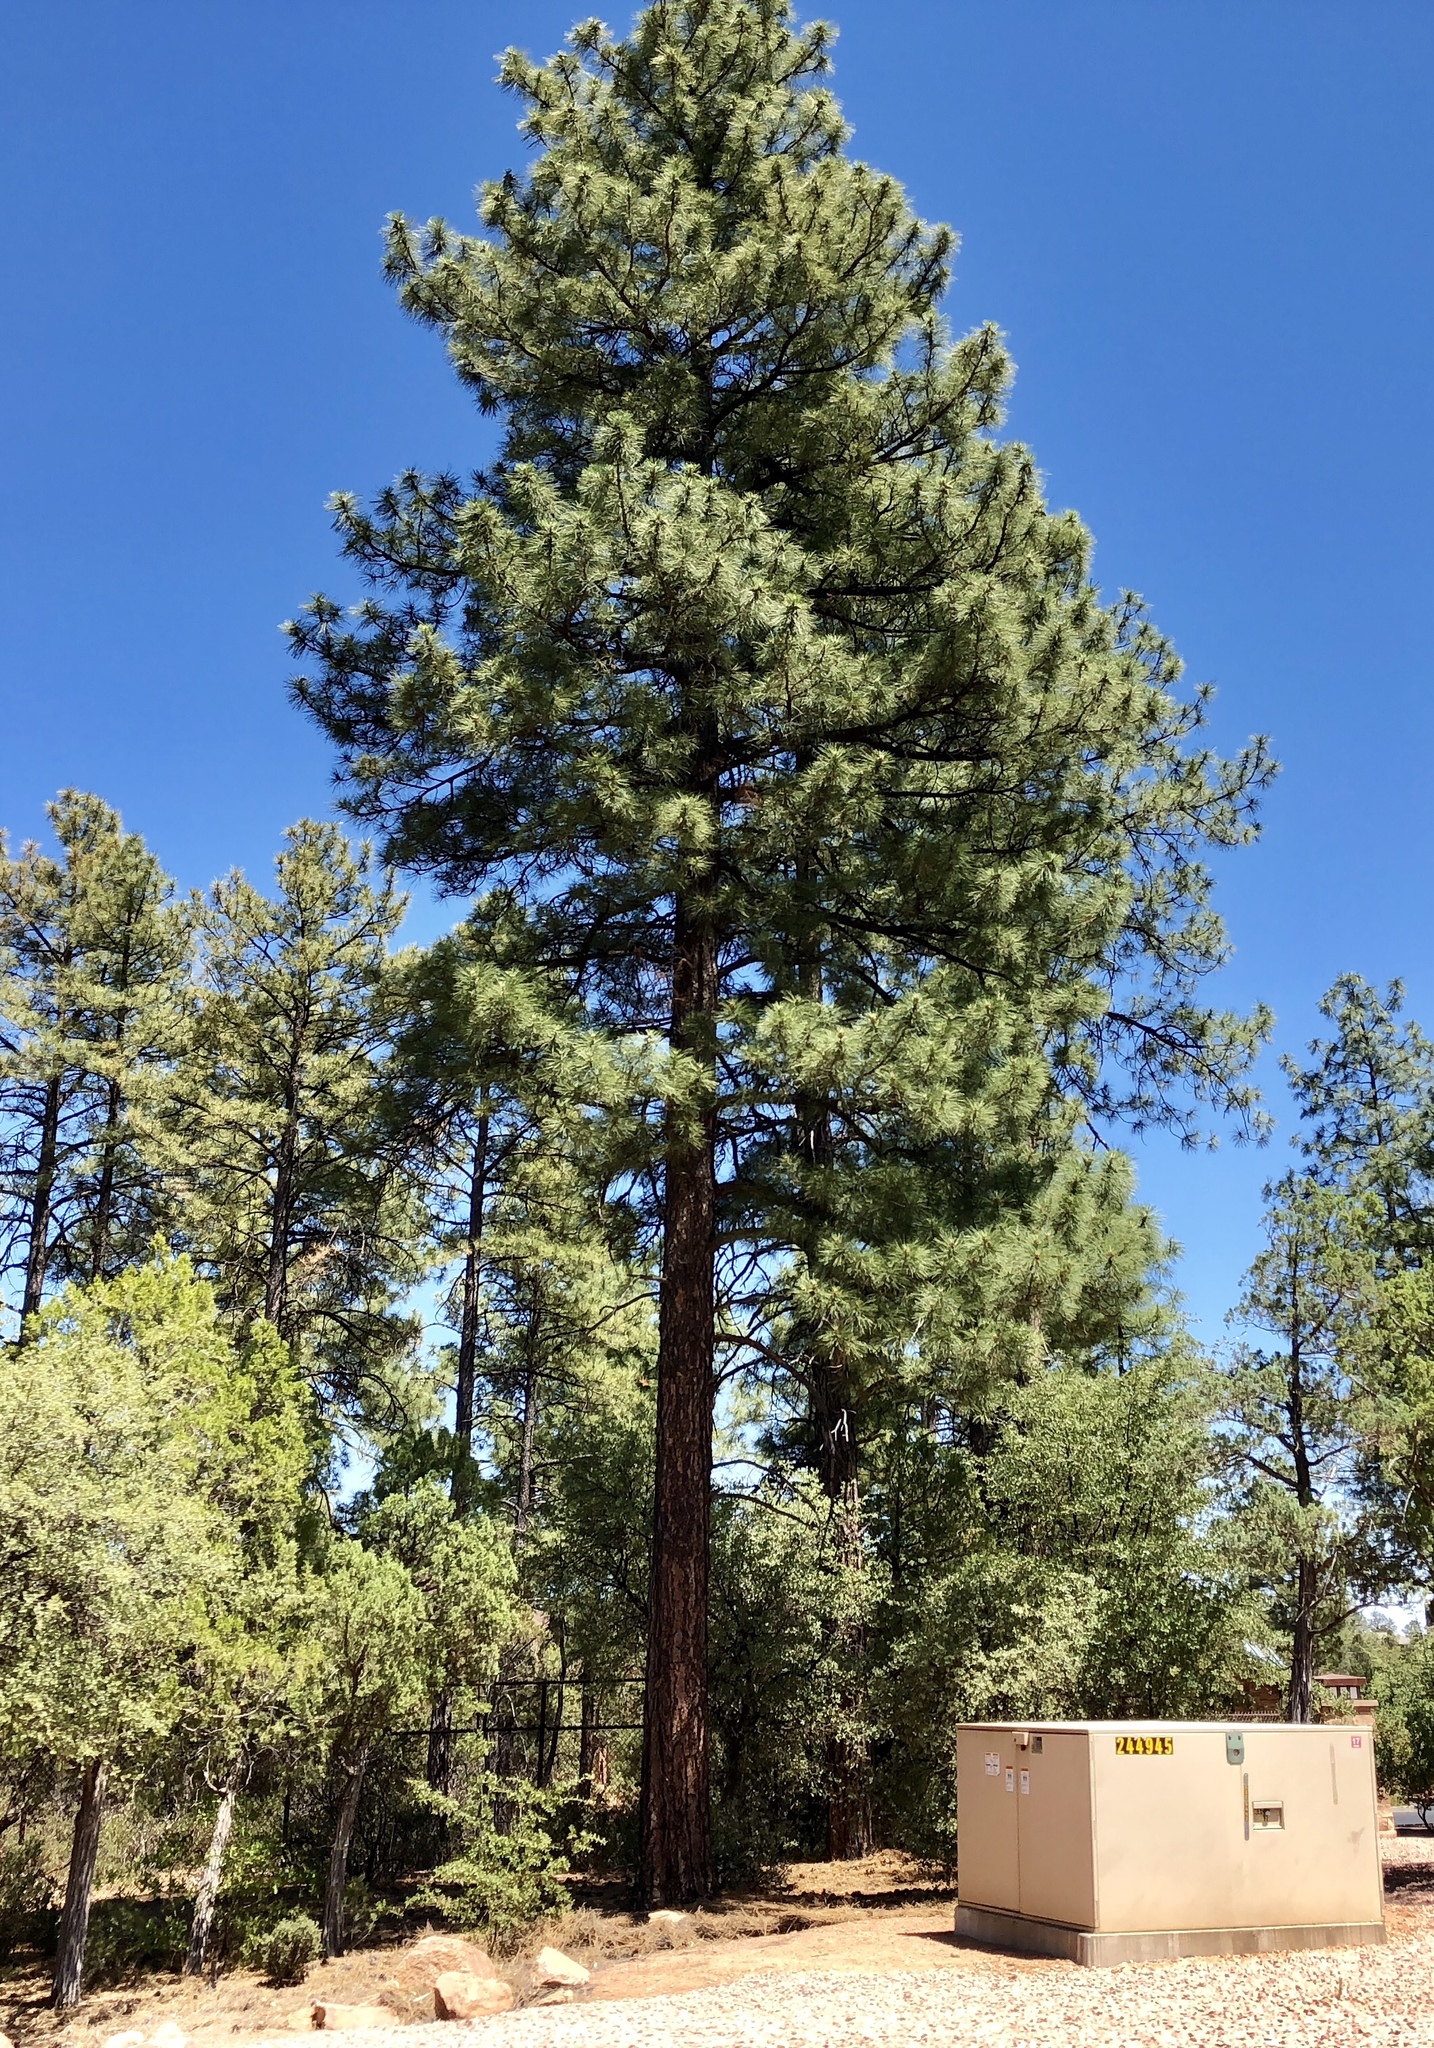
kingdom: Plantae
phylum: Tracheophyta
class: Pinopsida
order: Pinales
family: Pinaceae
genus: Pinus
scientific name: Pinus ponderosa
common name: Western yellow-pine
